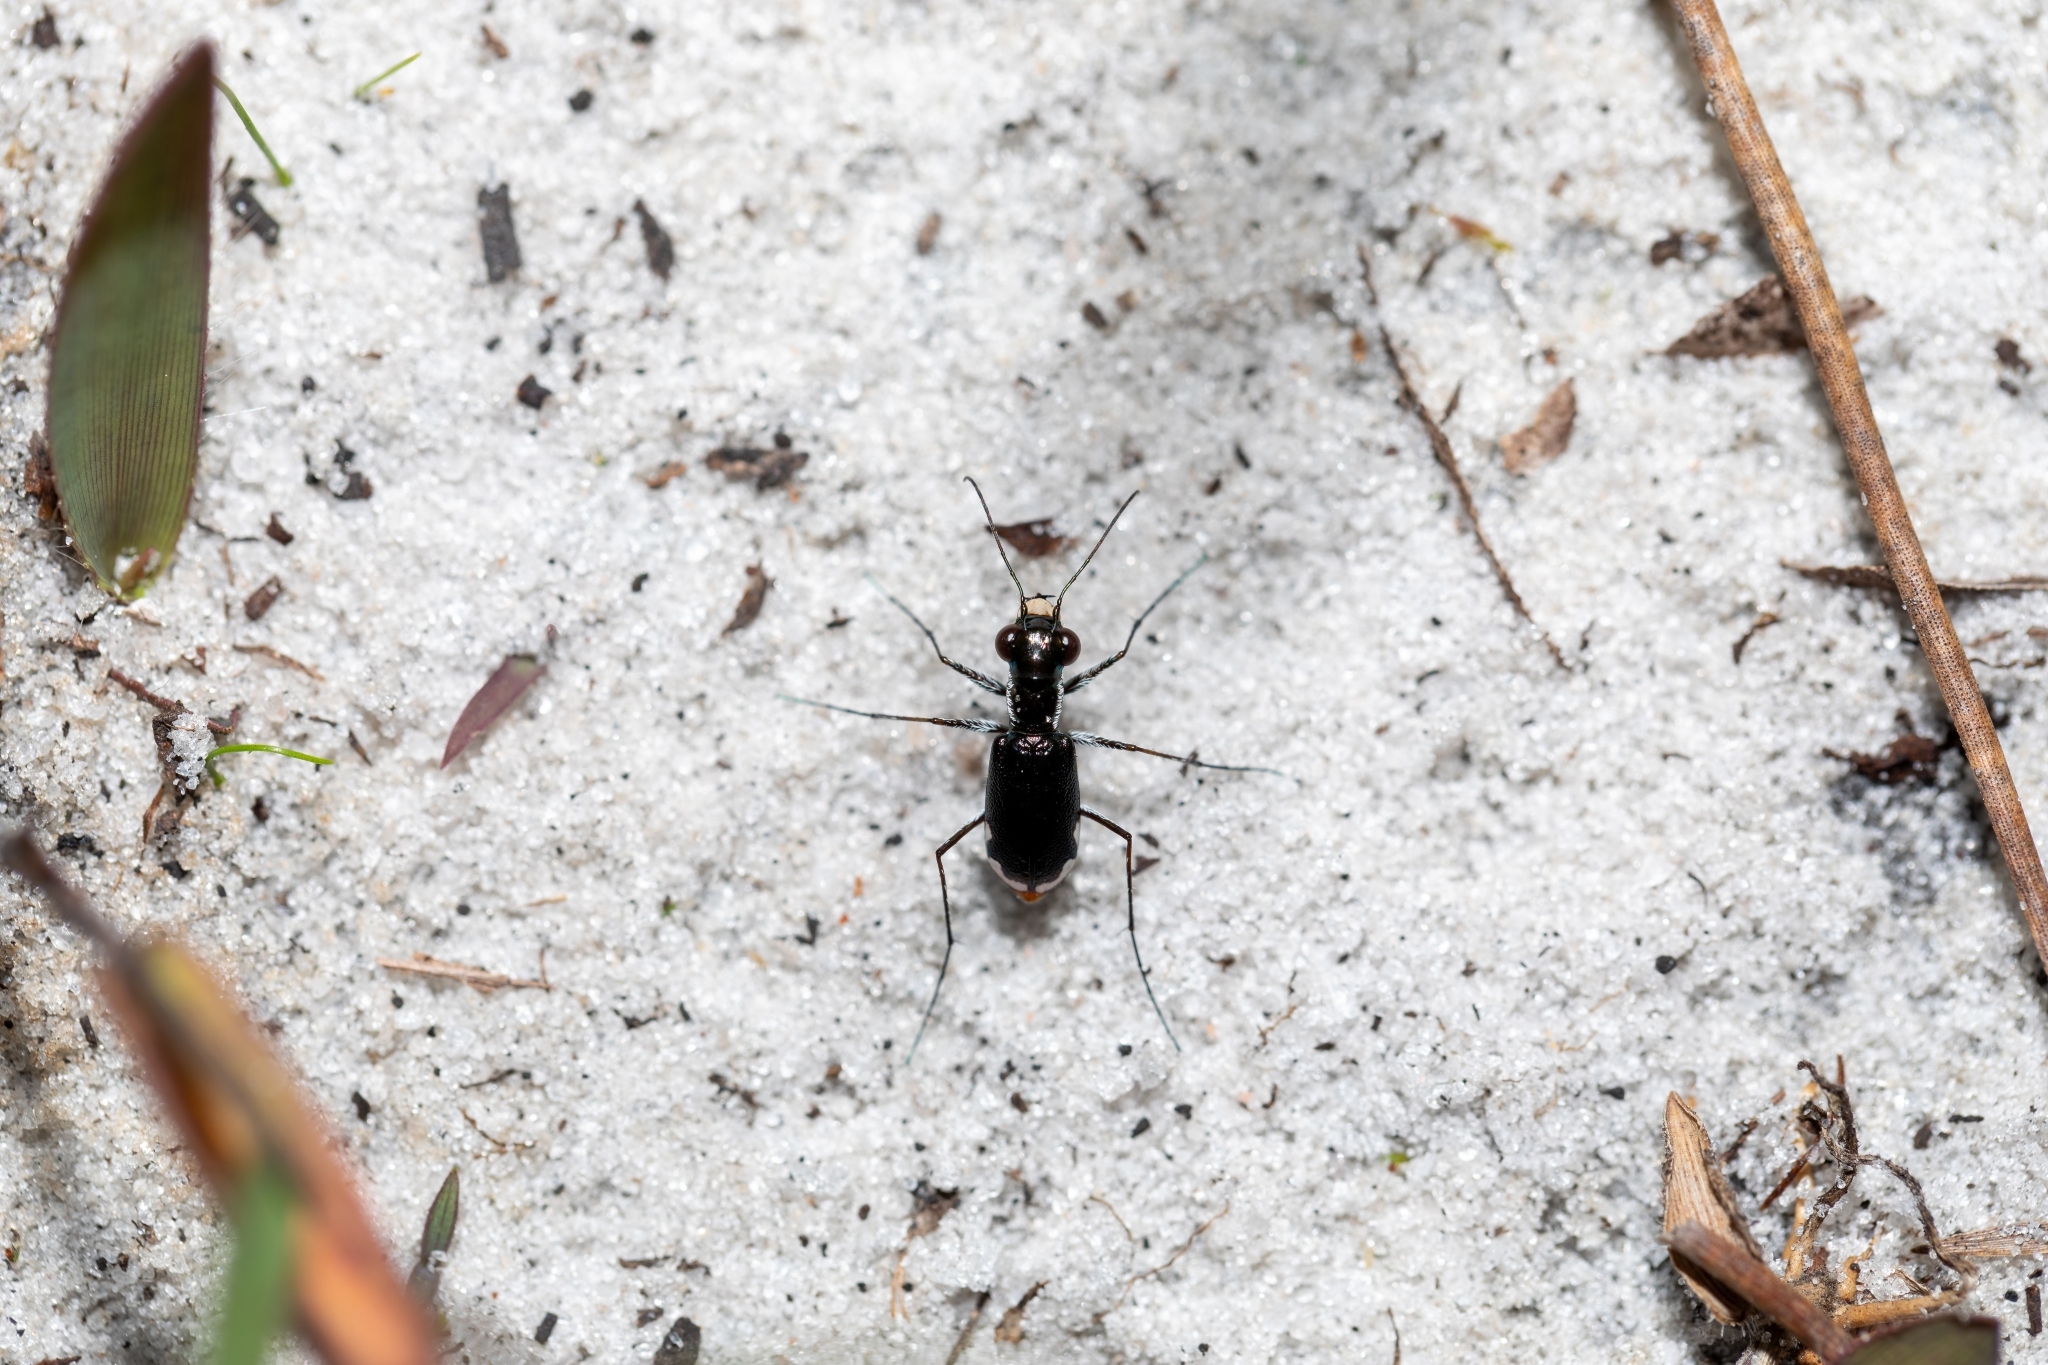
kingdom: Animalia
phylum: Arthropoda
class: Insecta
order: Coleoptera
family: Carabidae
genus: Cicindela
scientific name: Cicindela scabrosa
